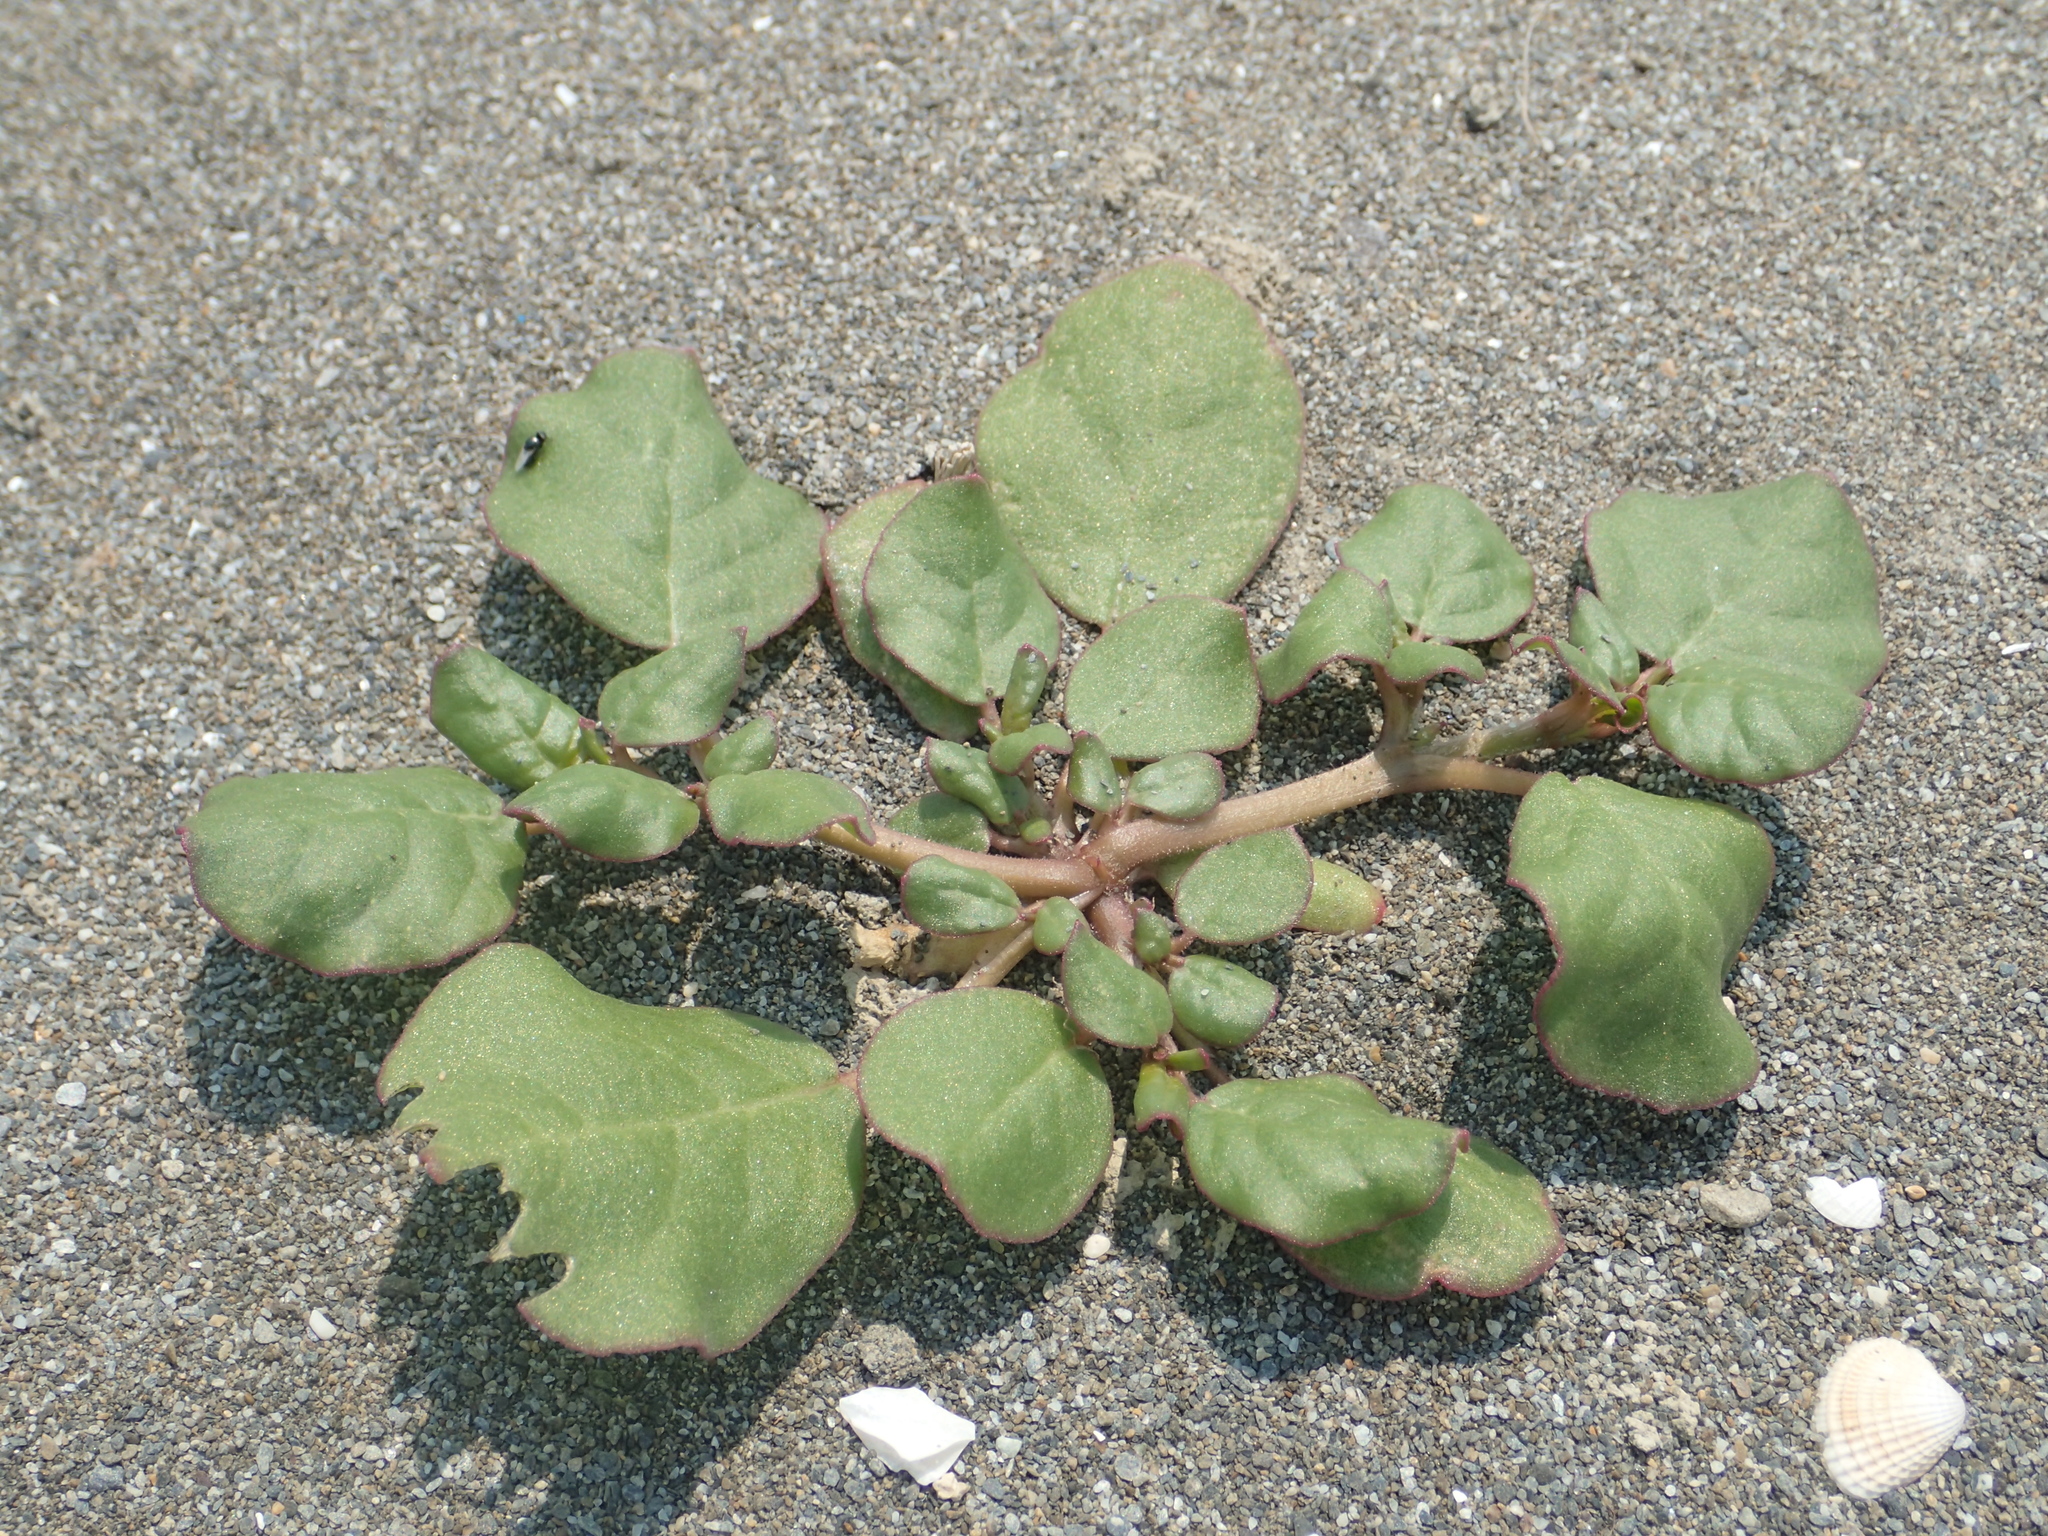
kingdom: Plantae
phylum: Tracheophyta
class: Magnoliopsida
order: Caryophyllales
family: Aizoaceae
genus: Trianthema
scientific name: Trianthema portulacastrum
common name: Desert horsepurslane
